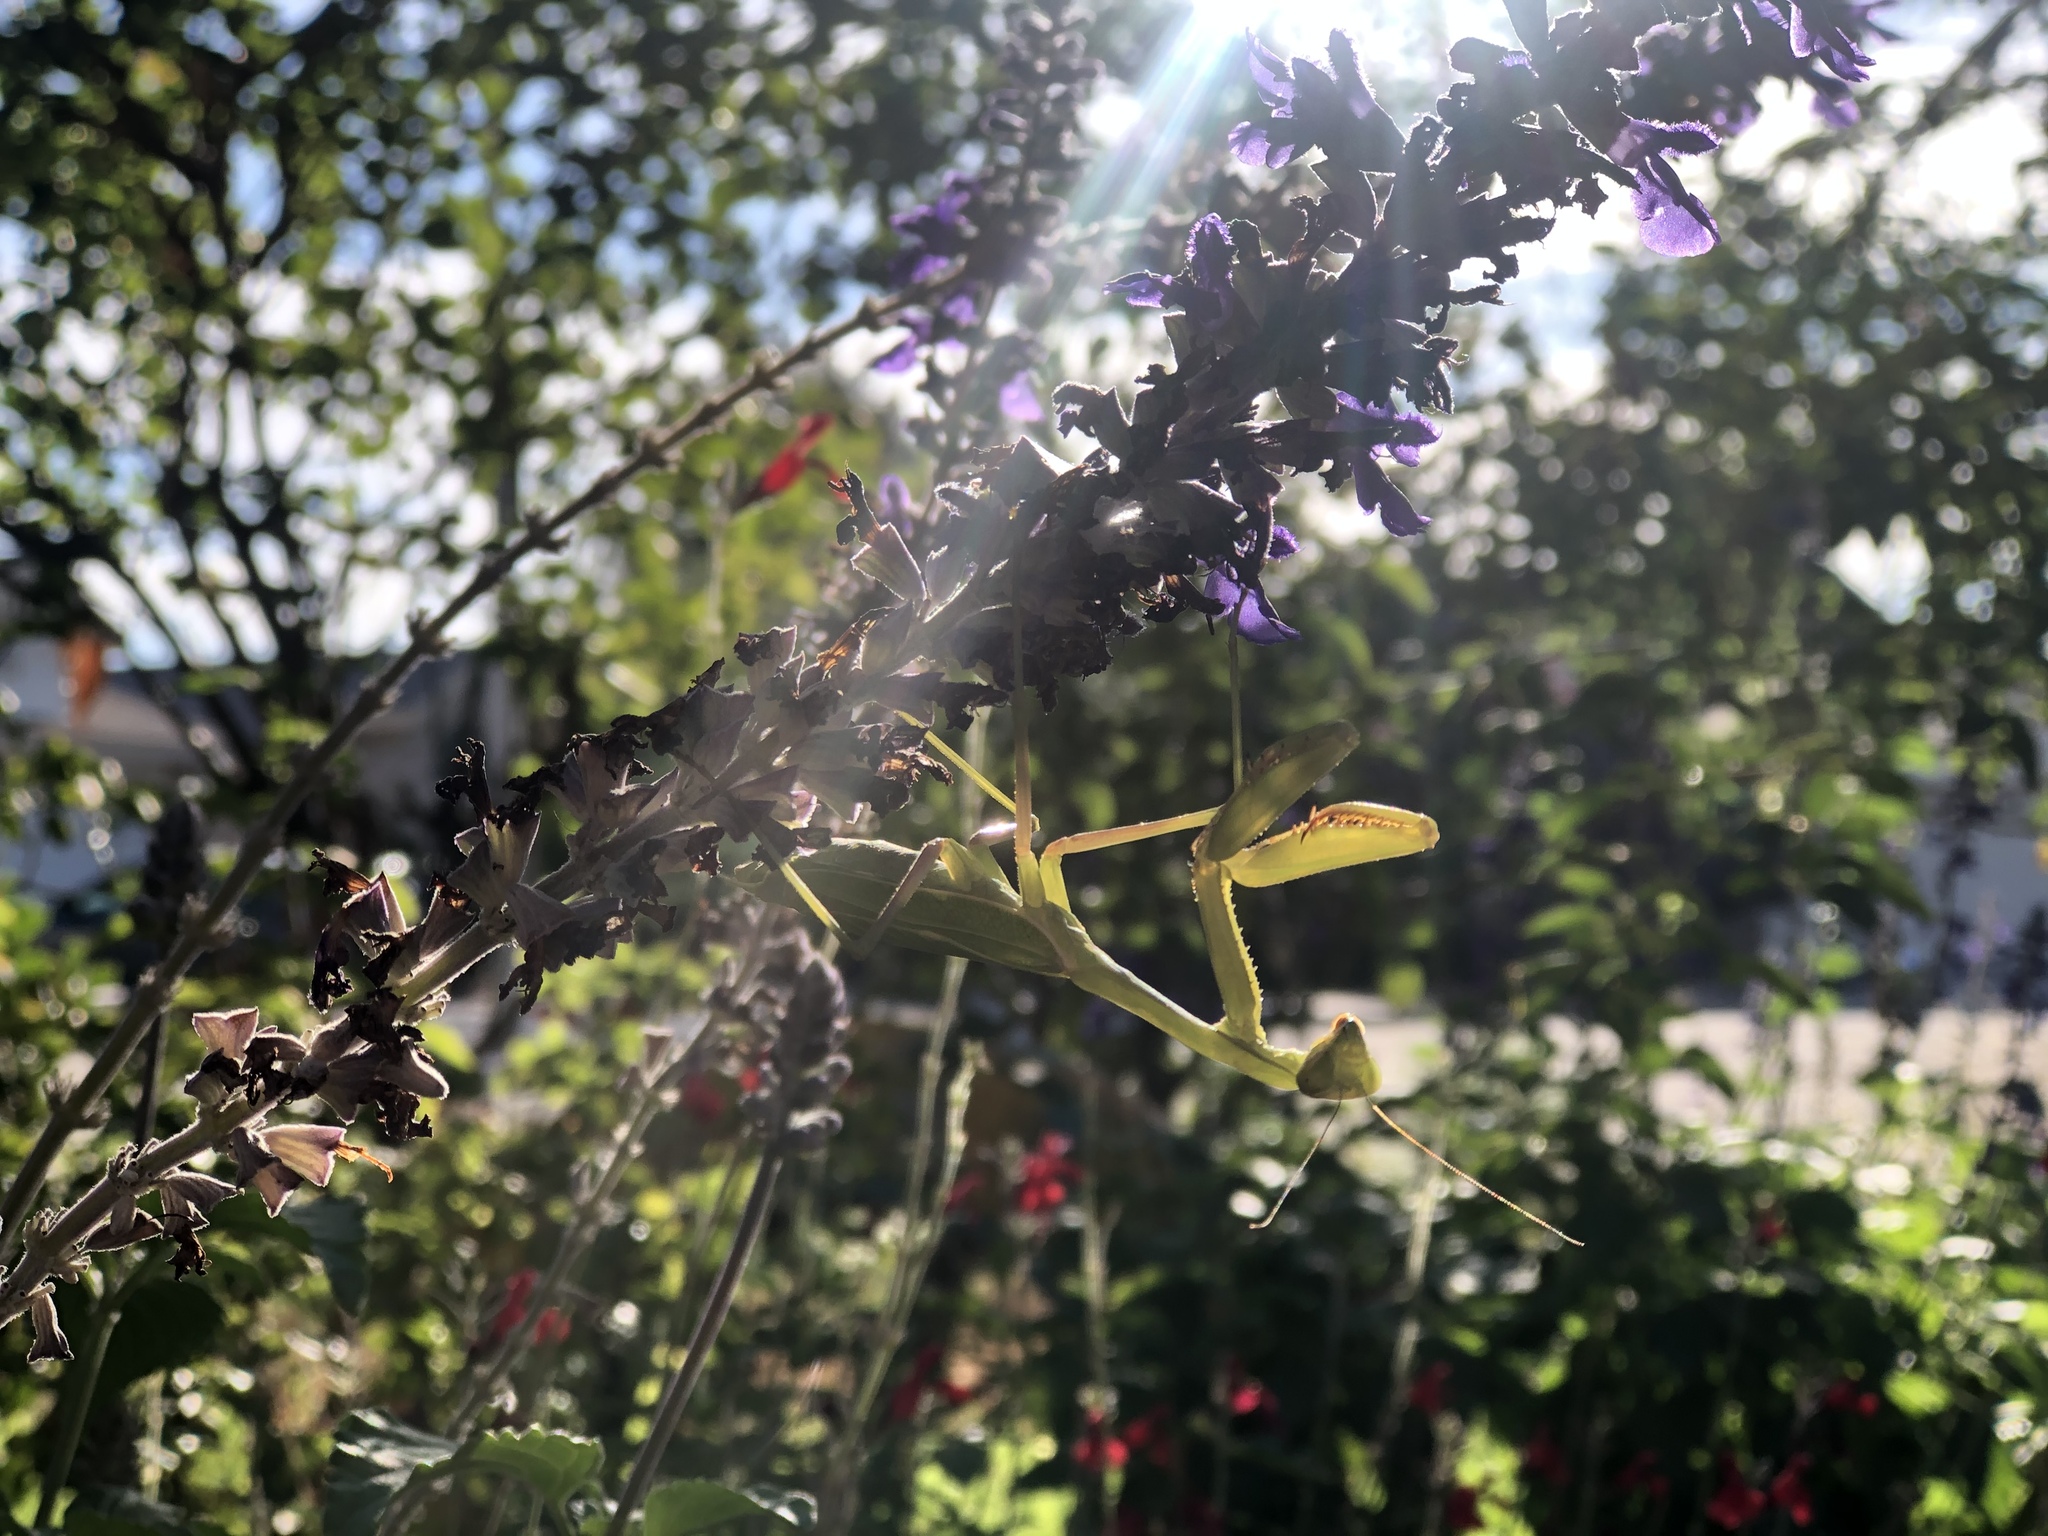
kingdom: Animalia
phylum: Arthropoda
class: Insecta
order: Mantodea
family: Mantidae
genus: Stagmomantis
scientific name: Stagmomantis limbata
